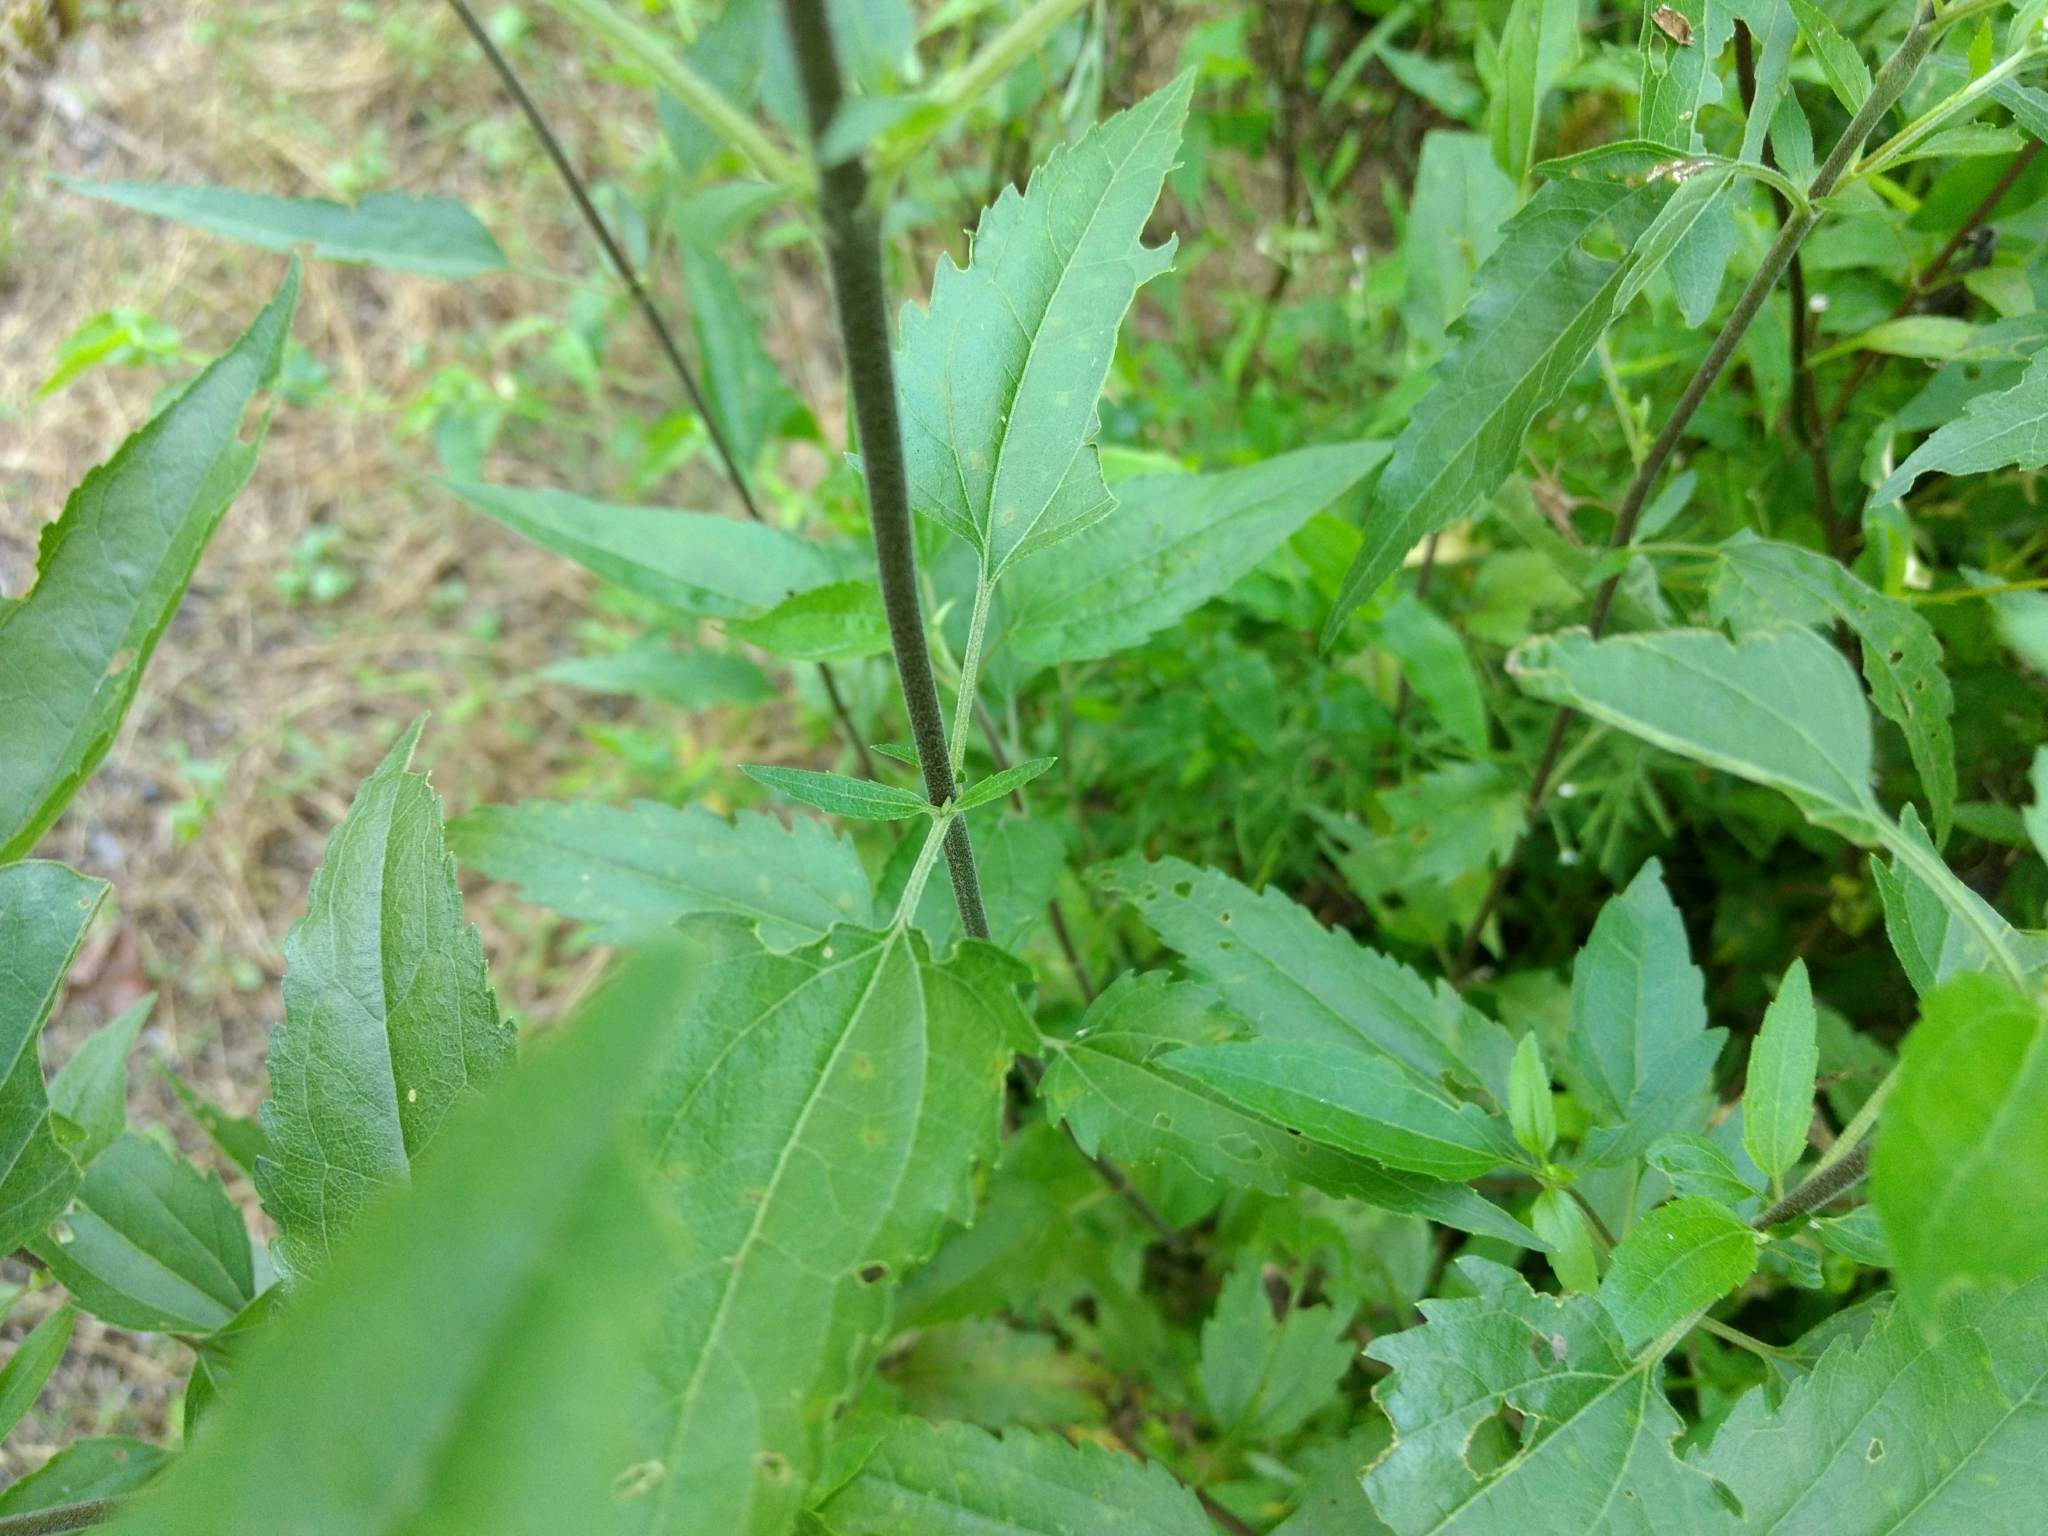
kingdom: Plantae
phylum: Tracheophyta
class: Magnoliopsida
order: Asterales
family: Asteraceae
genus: Eupatorium
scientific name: Eupatorium serotinum
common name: Late boneset
